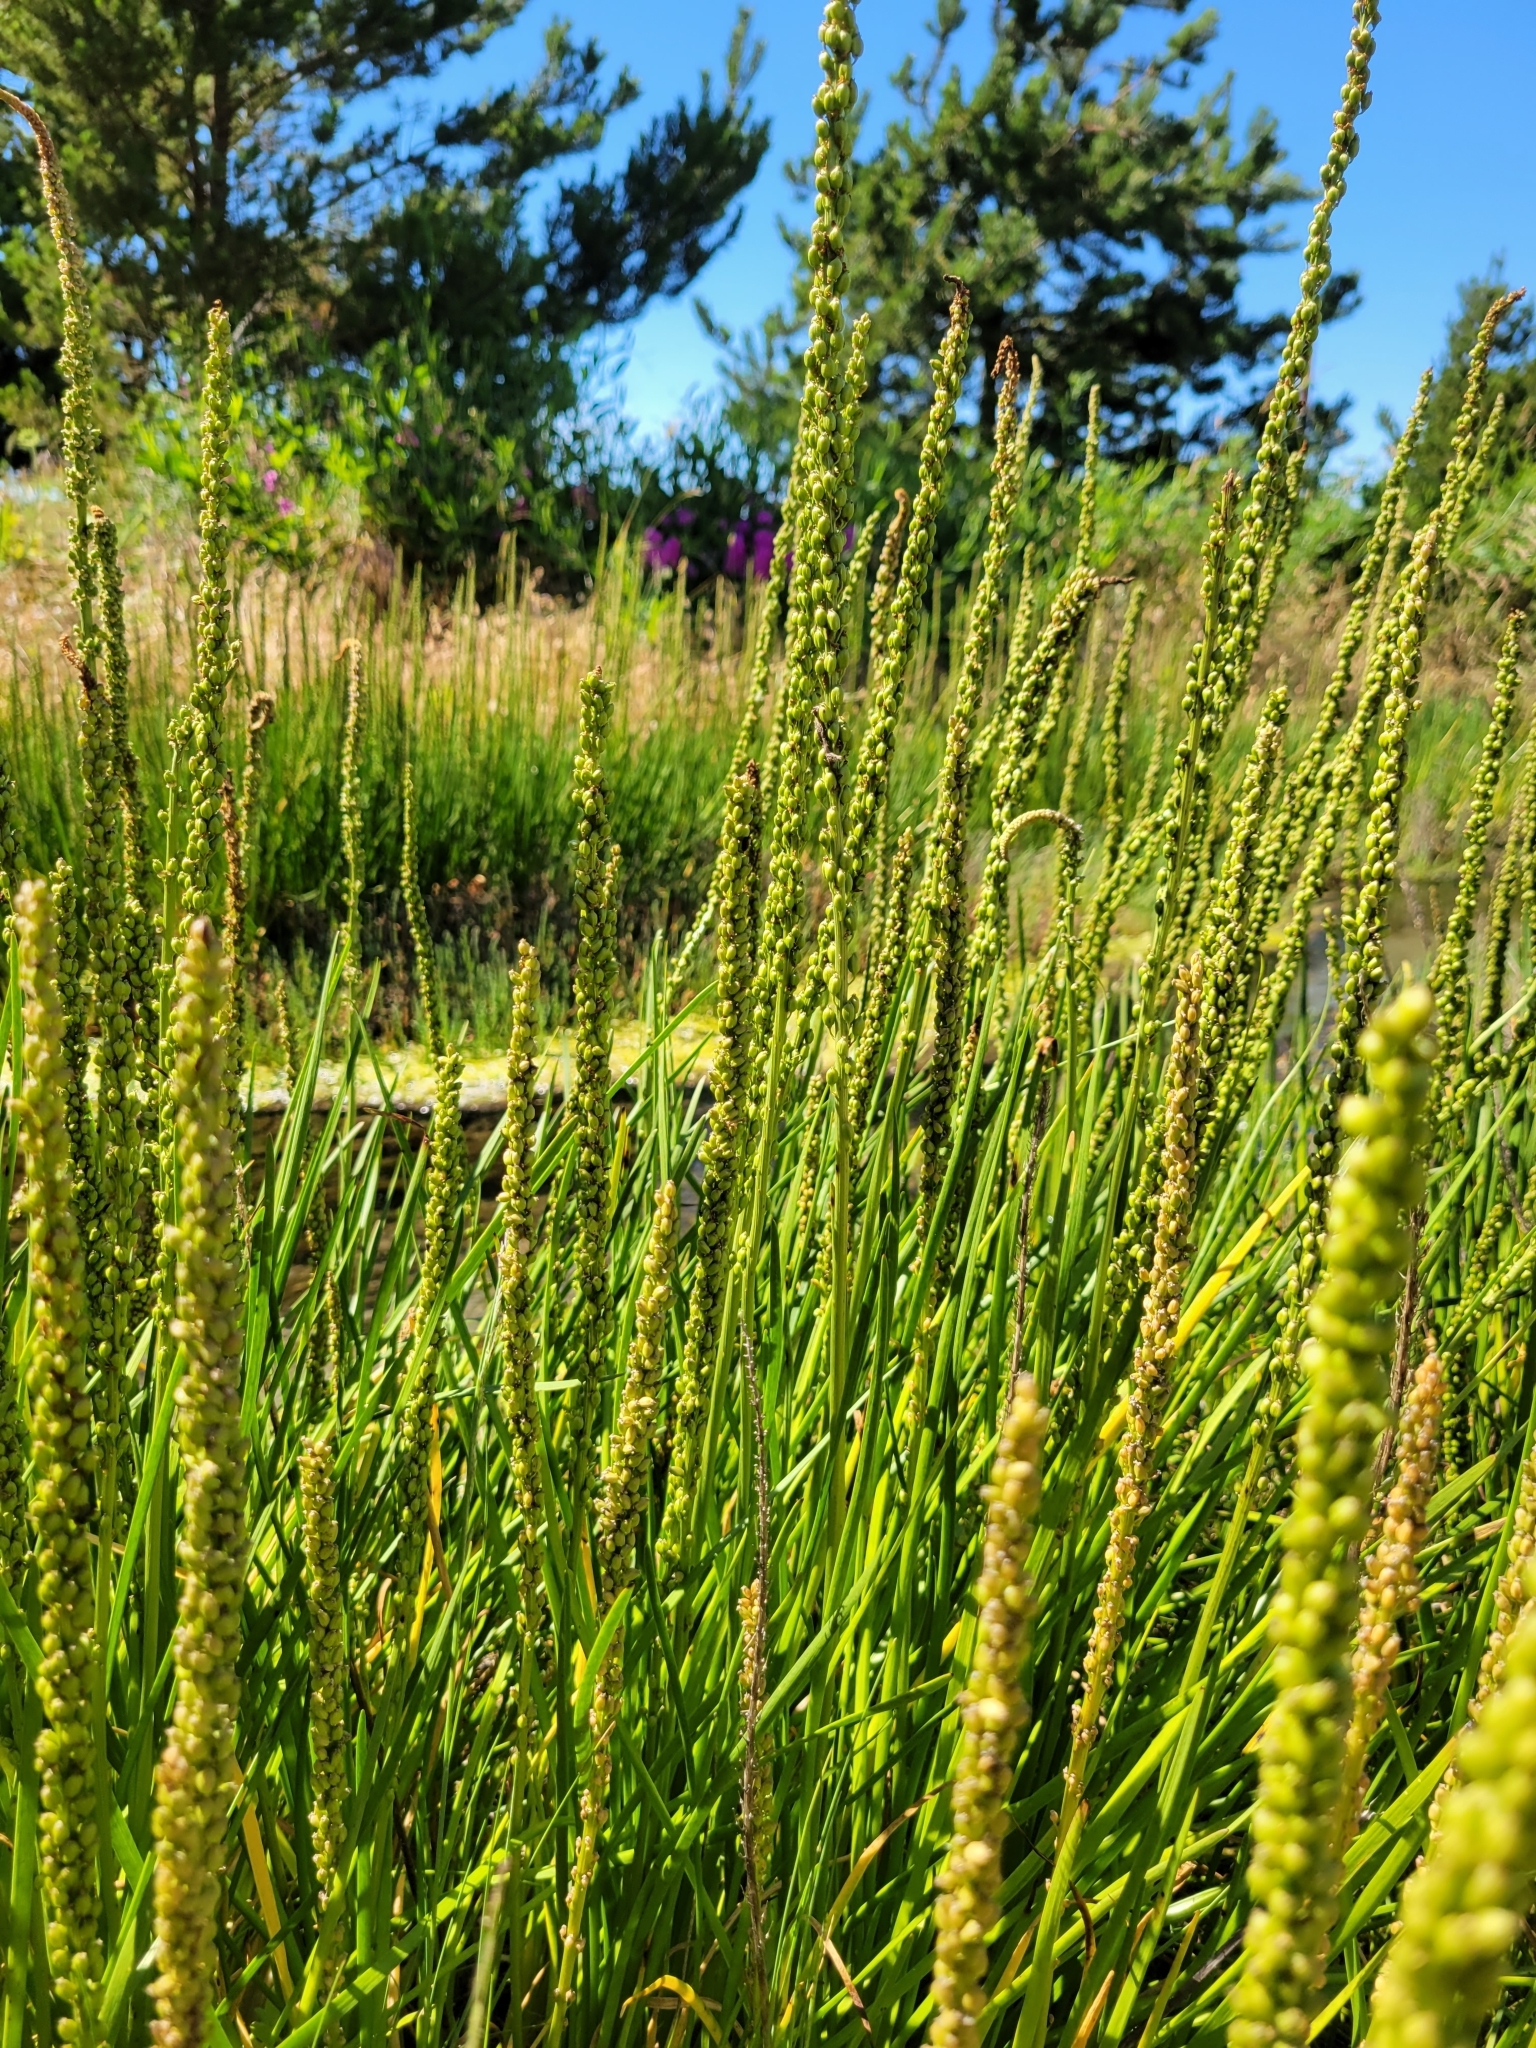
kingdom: Plantae
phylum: Tracheophyta
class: Liliopsida
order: Alismatales
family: Juncaginaceae
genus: Triglochin
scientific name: Triglochin maritima
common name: Sea arrowgrass
